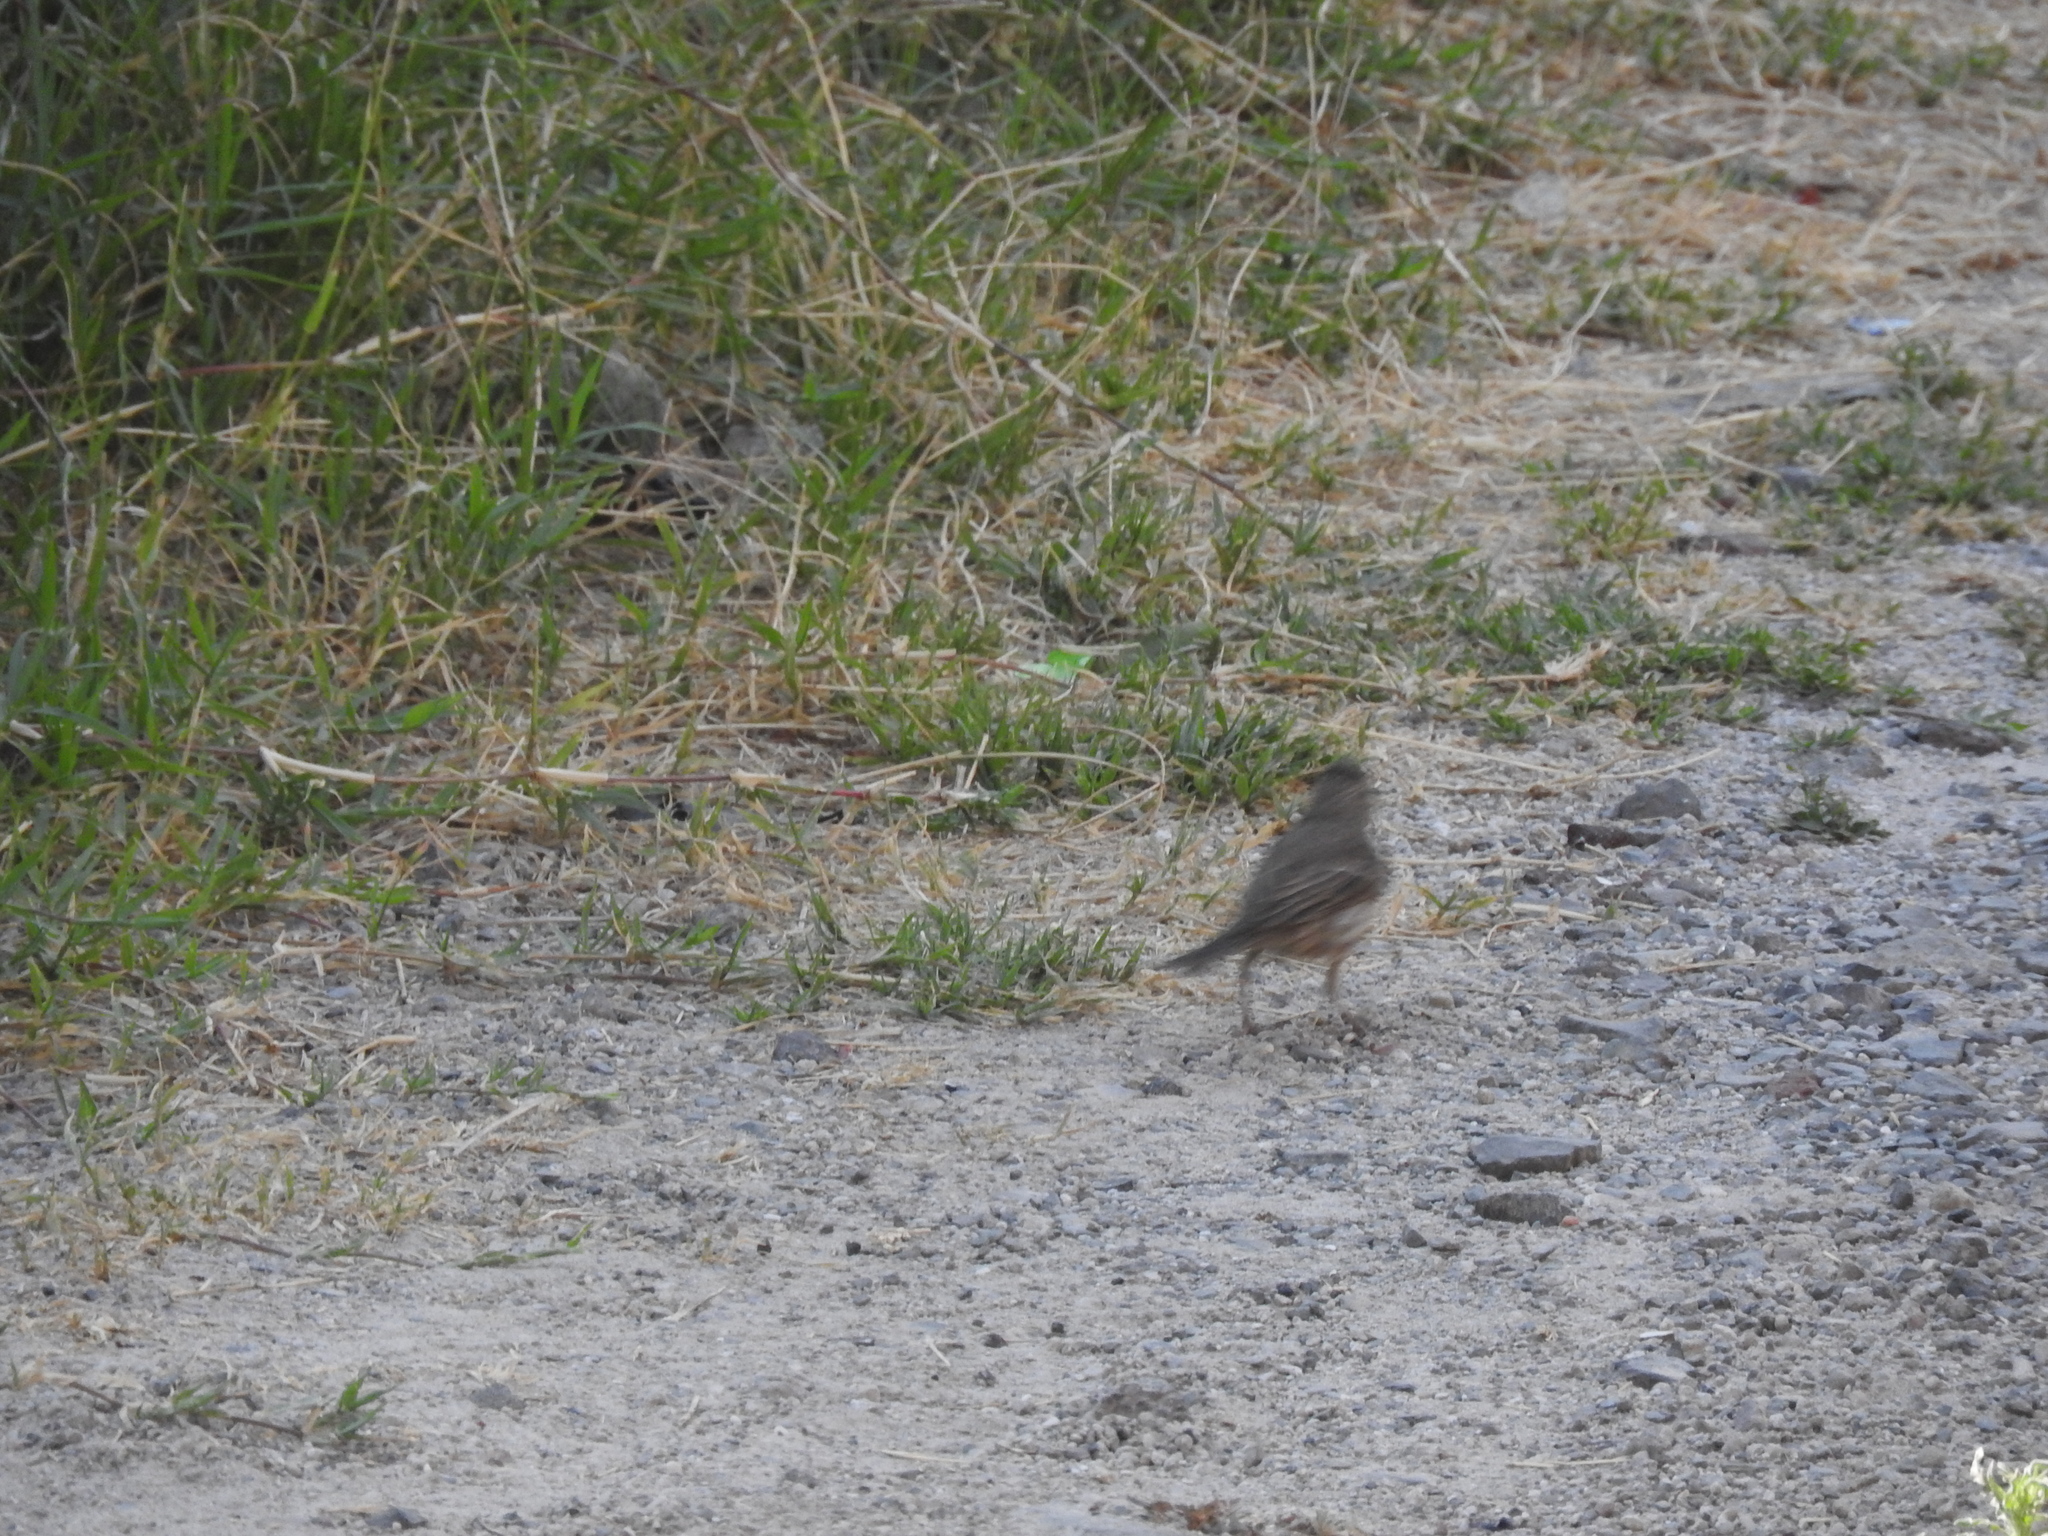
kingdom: Animalia
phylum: Chordata
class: Aves
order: Passeriformes
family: Fringillidae
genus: Haemorhous
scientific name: Haemorhous mexicanus
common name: House finch
